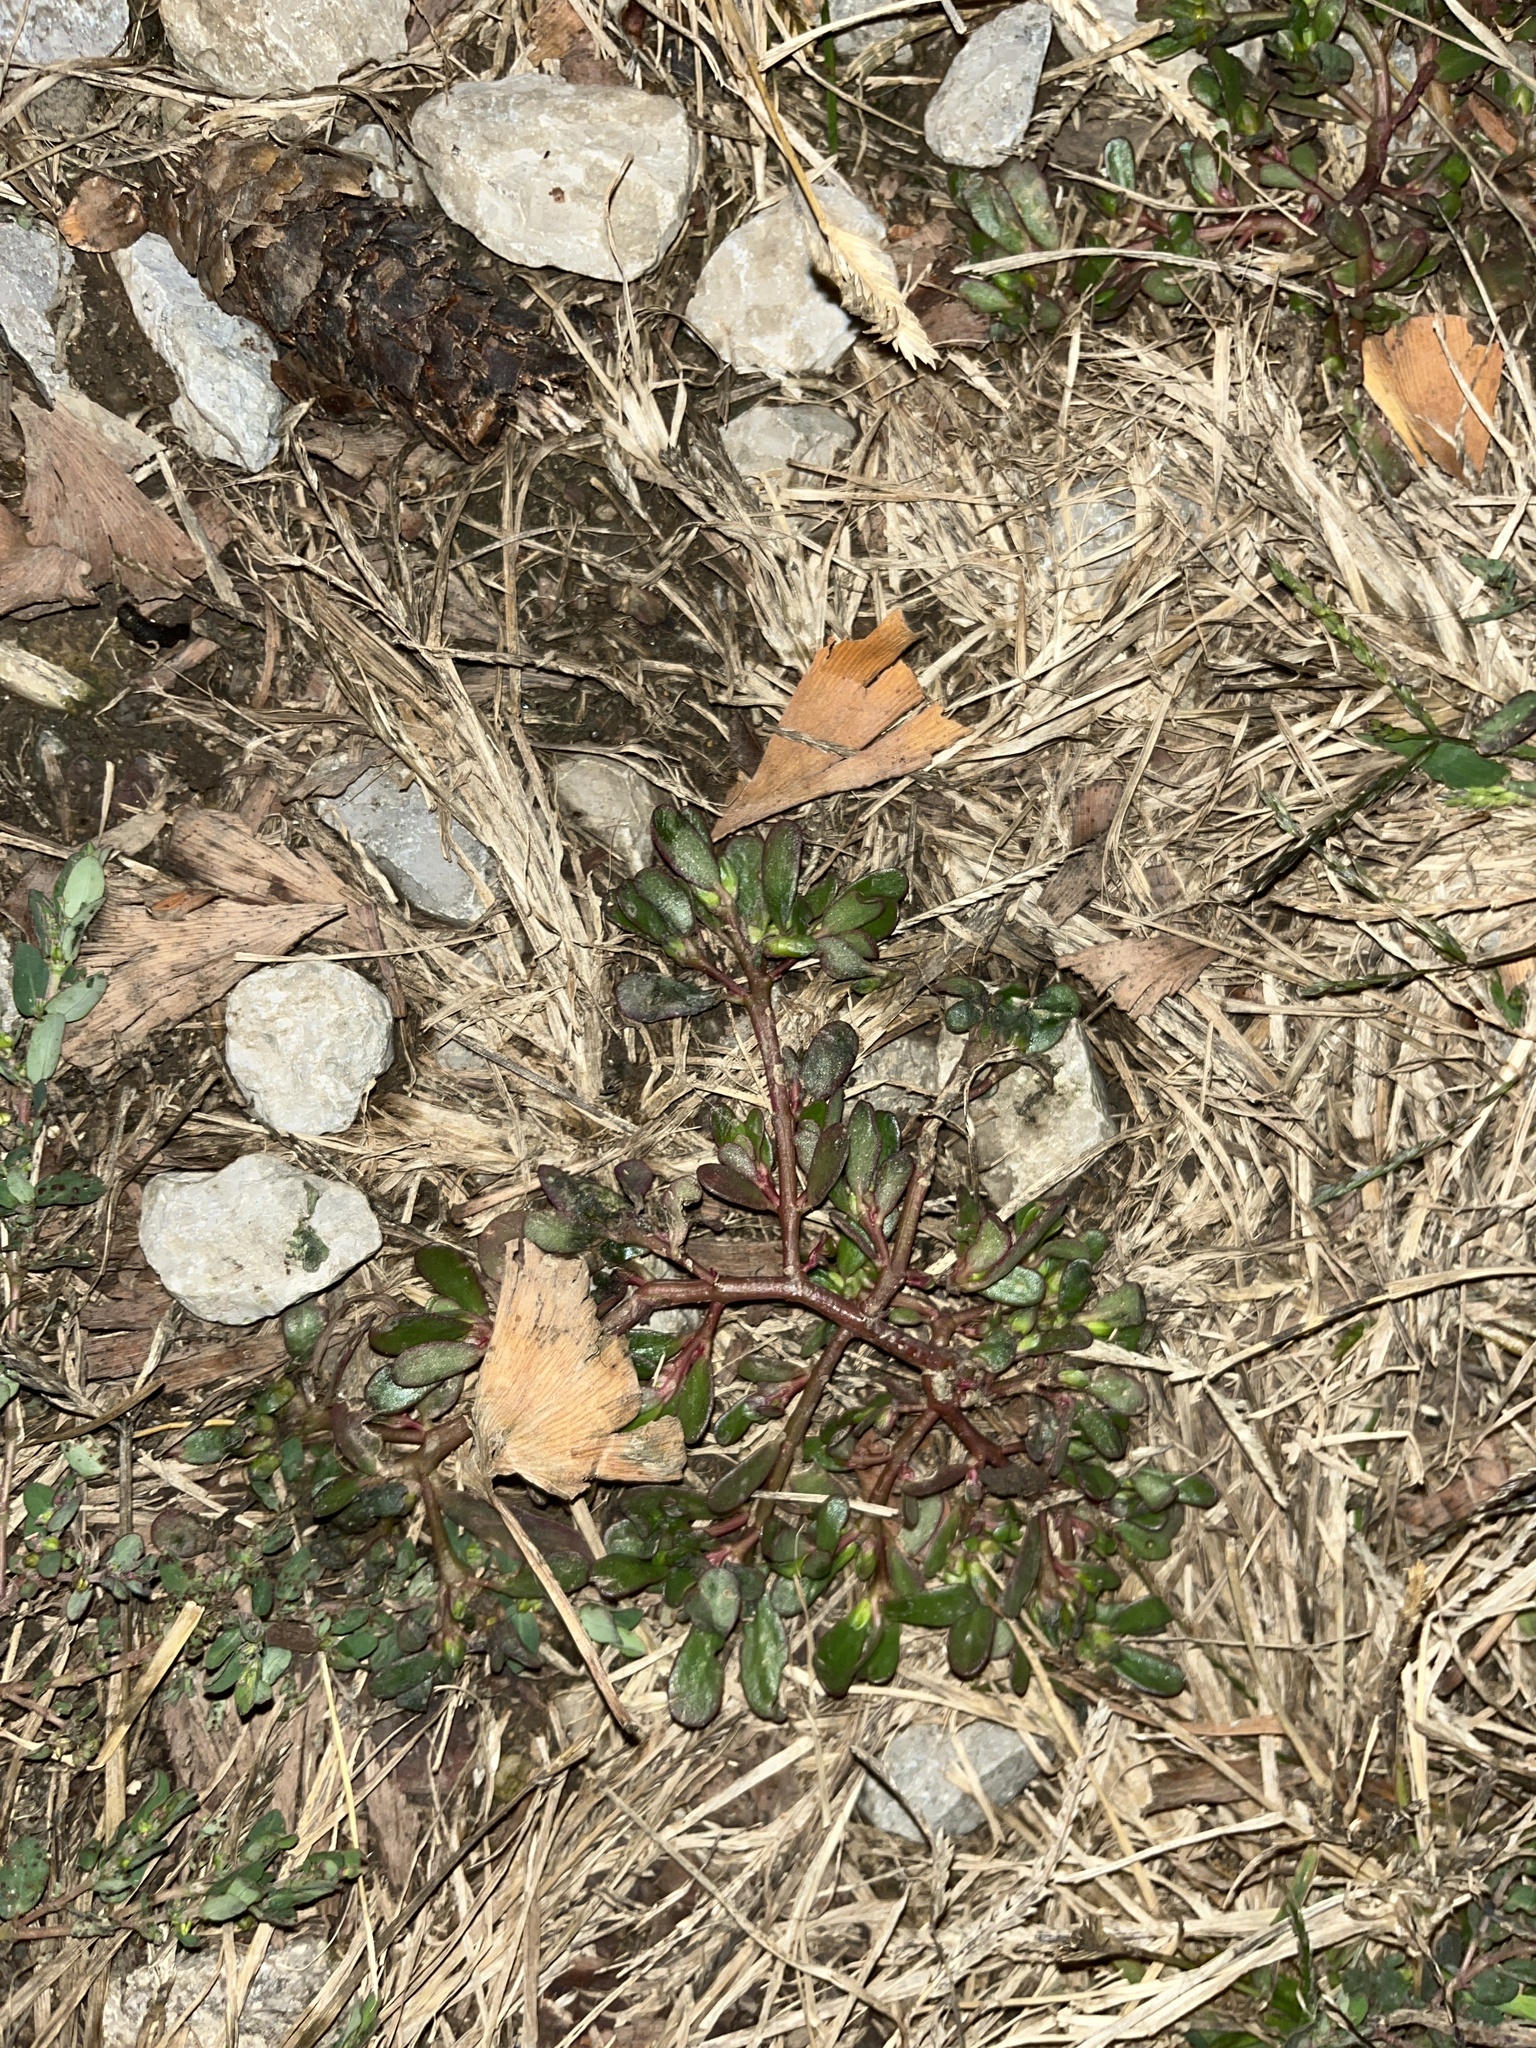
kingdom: Plantae
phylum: Tracheophyta
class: Magnoliopsida
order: Caryophyllales
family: Portulacaceae
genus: Portulaca
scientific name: Portulaca oleracea
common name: Common purslane
